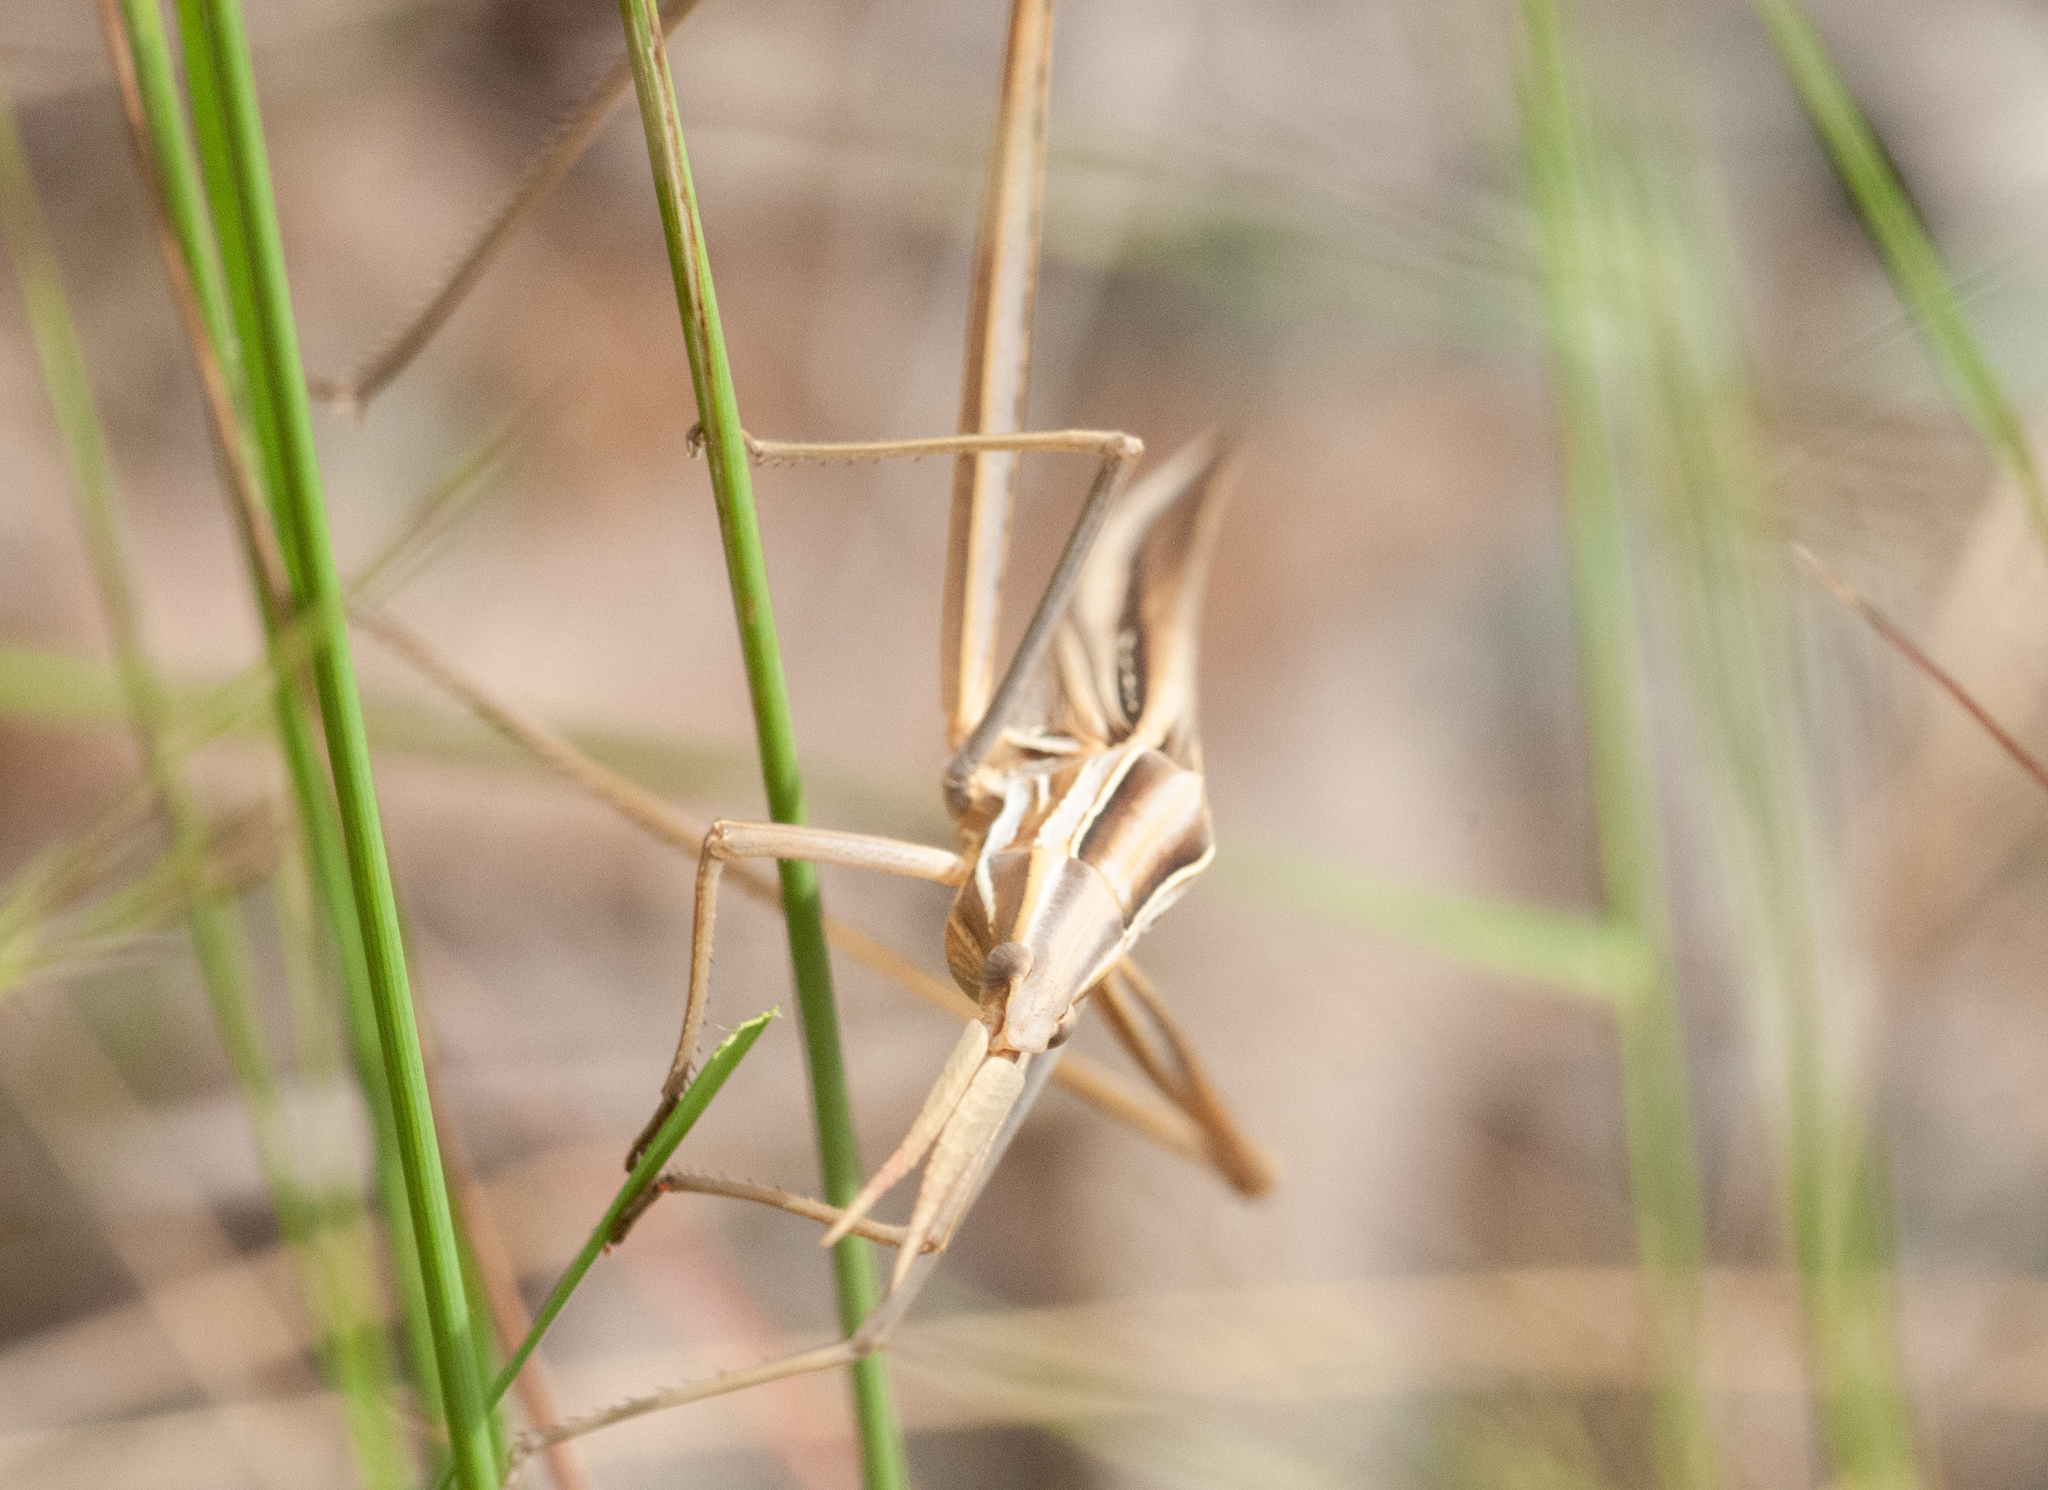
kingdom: Animalia
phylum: Arthropoda
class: Insecta
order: Orthoptera
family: Acrididae
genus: Acrida
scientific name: Acrida conica
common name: Giant green slantface
